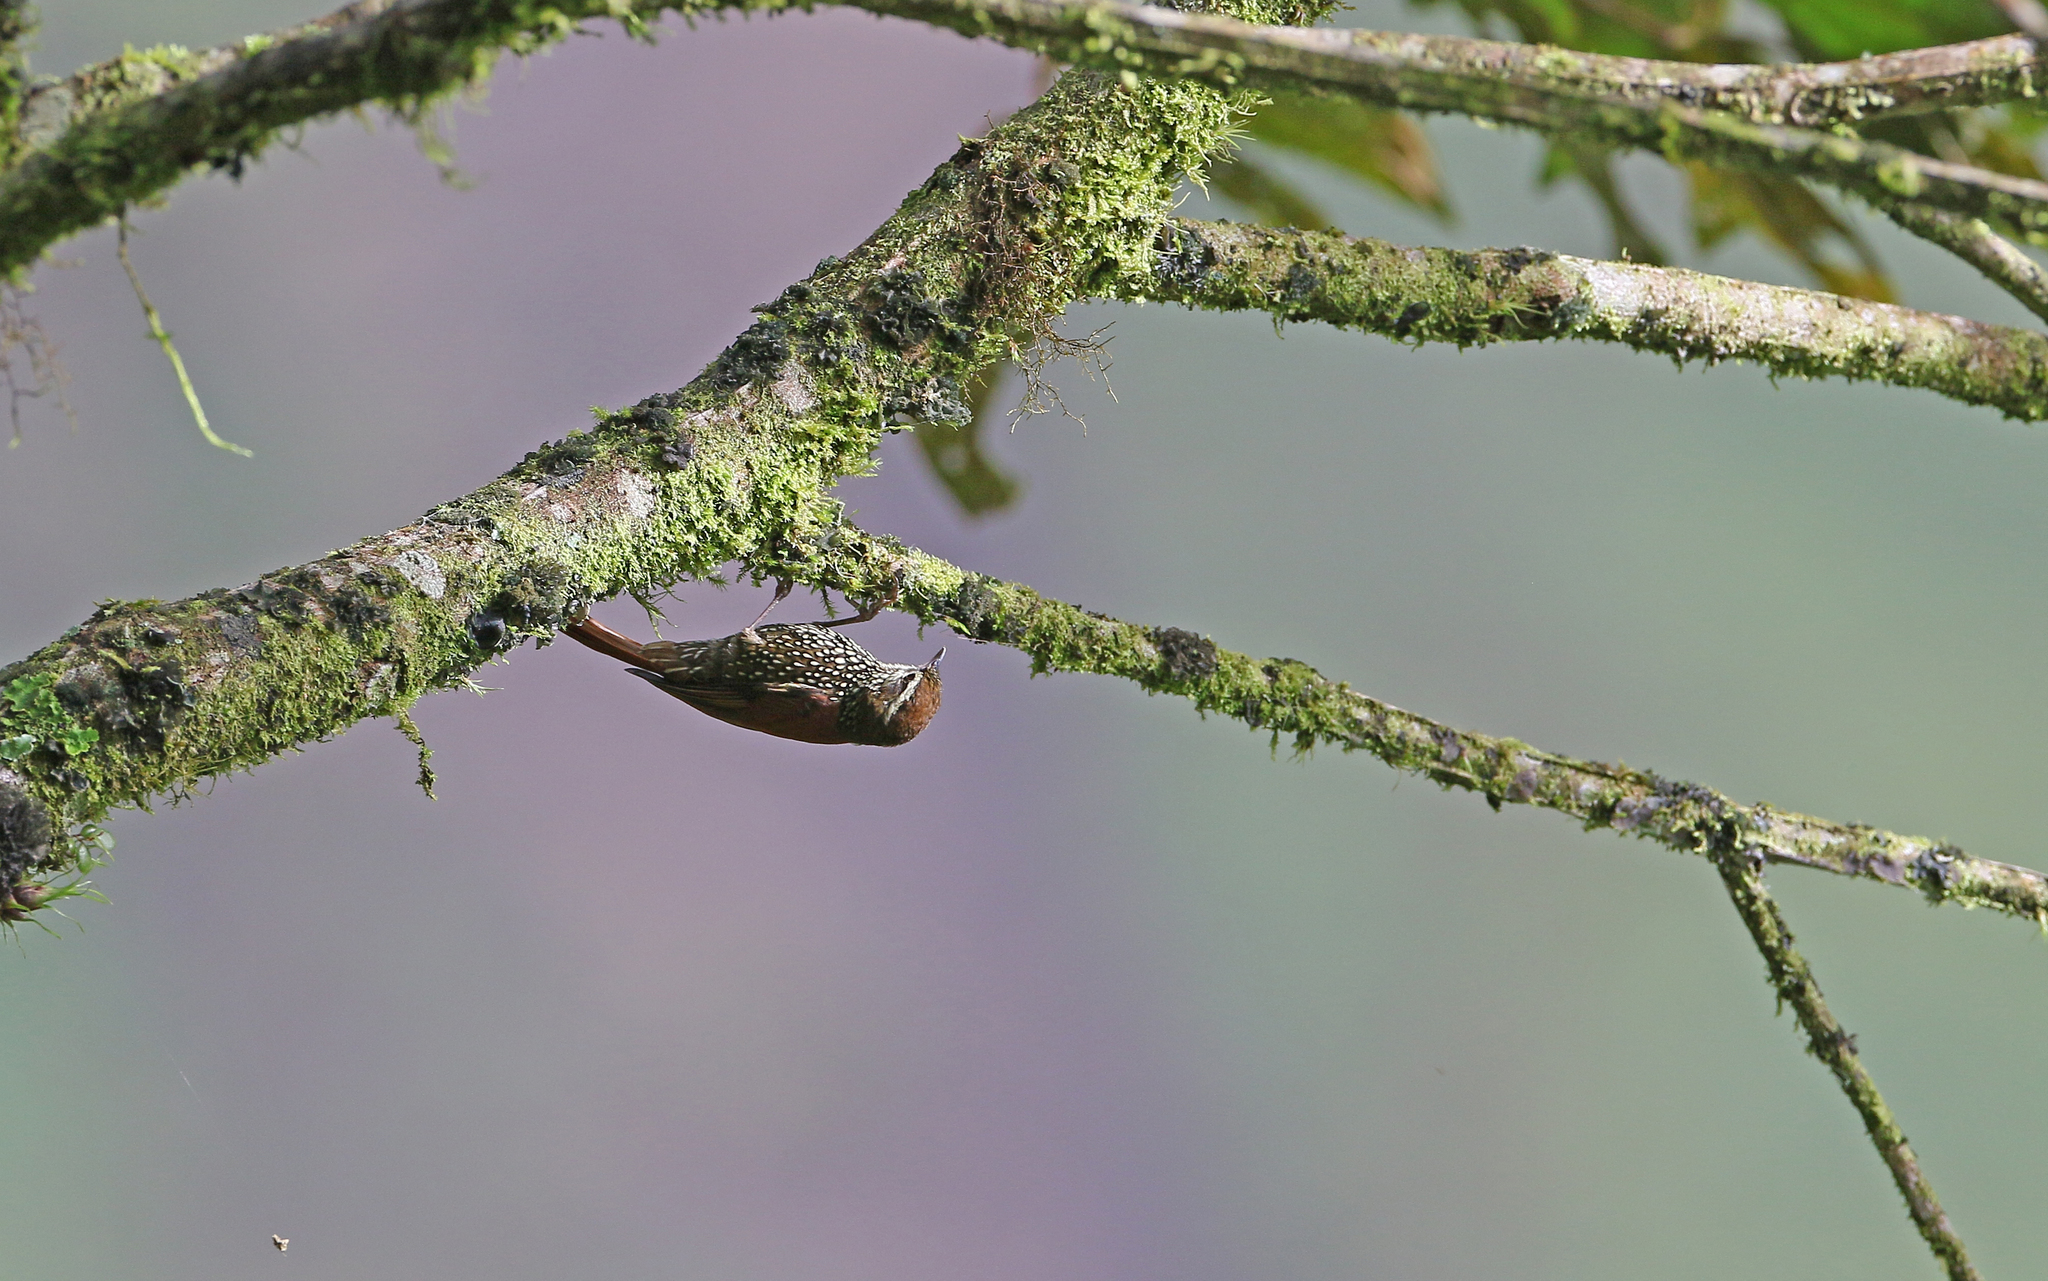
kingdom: Animalia
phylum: Chordata
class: Aves
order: Passeriformes
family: Furnariidae
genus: Margarornis
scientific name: Margarornis squamiger
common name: Pearled treerunner
